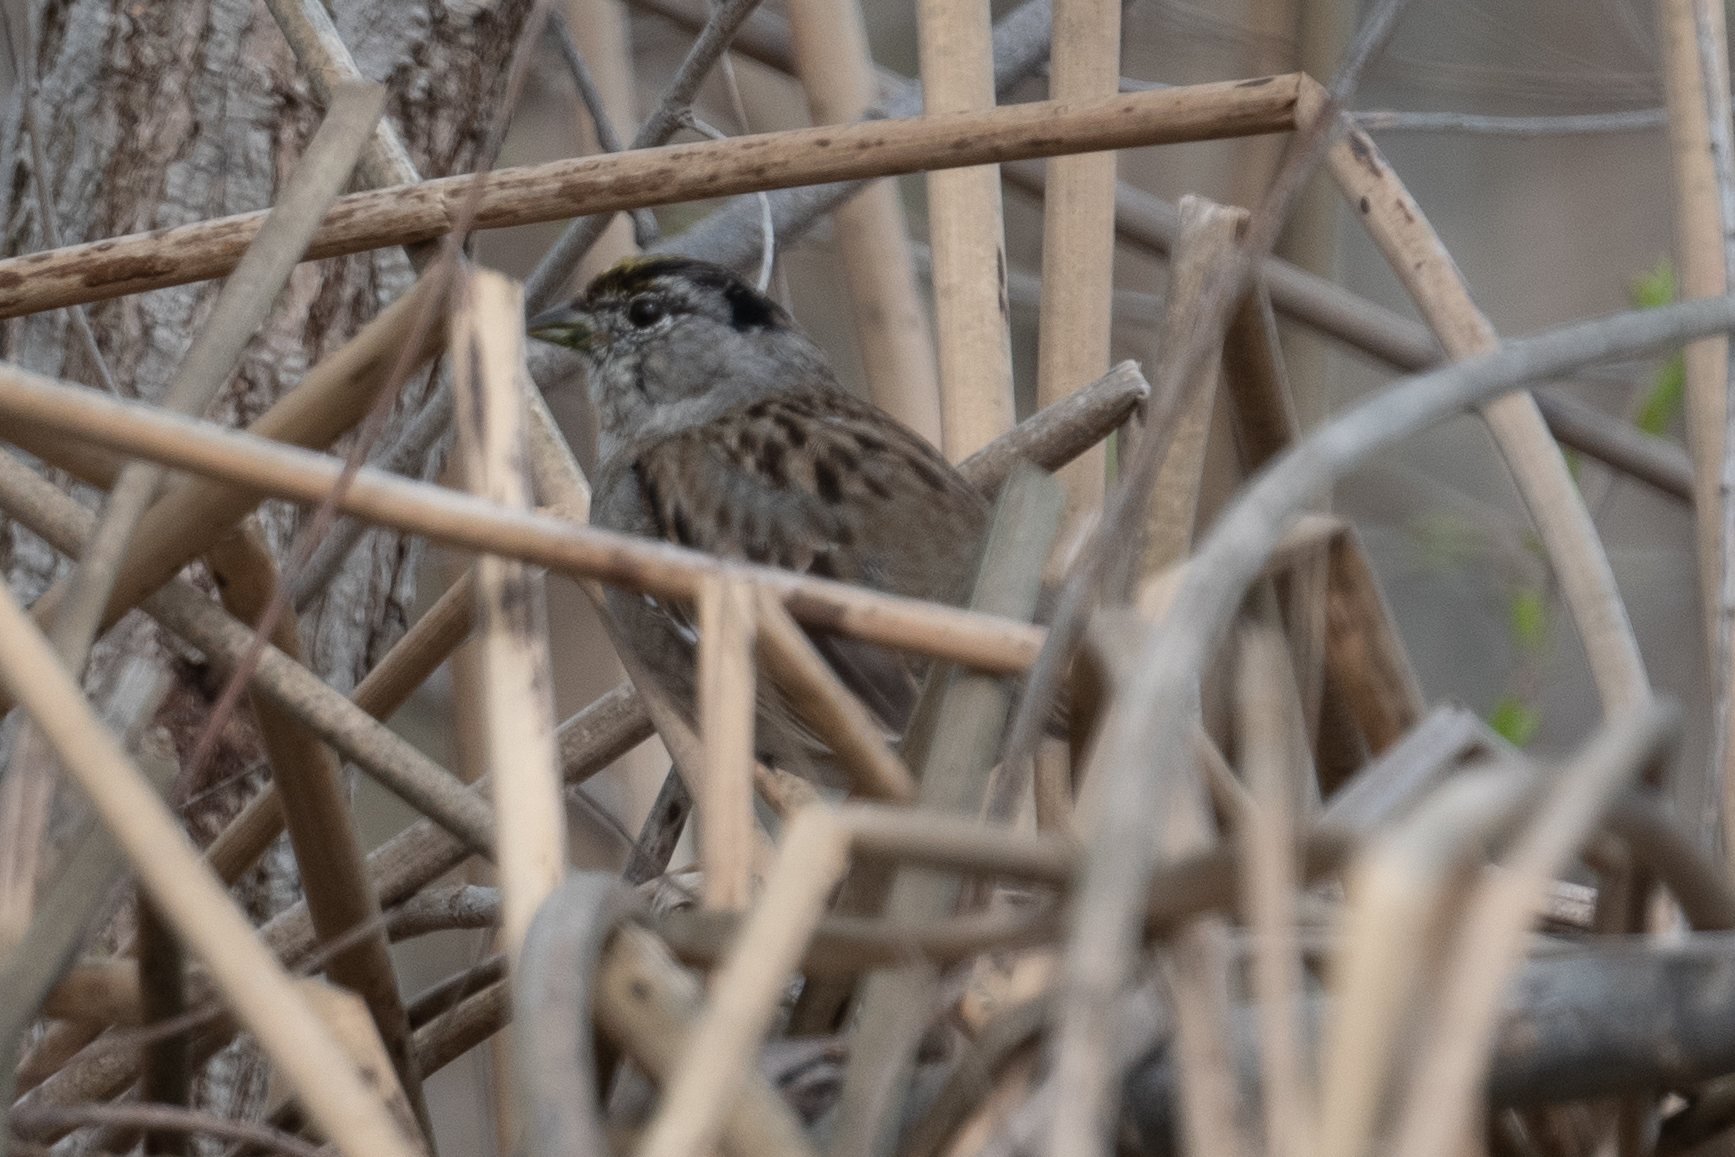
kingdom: Animalia
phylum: Chordata
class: Aves
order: Passeriformes
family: Passerellidae
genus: Zonotrichia
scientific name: Zonotrichia atricapilla
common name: Golden-crowned sparrow
